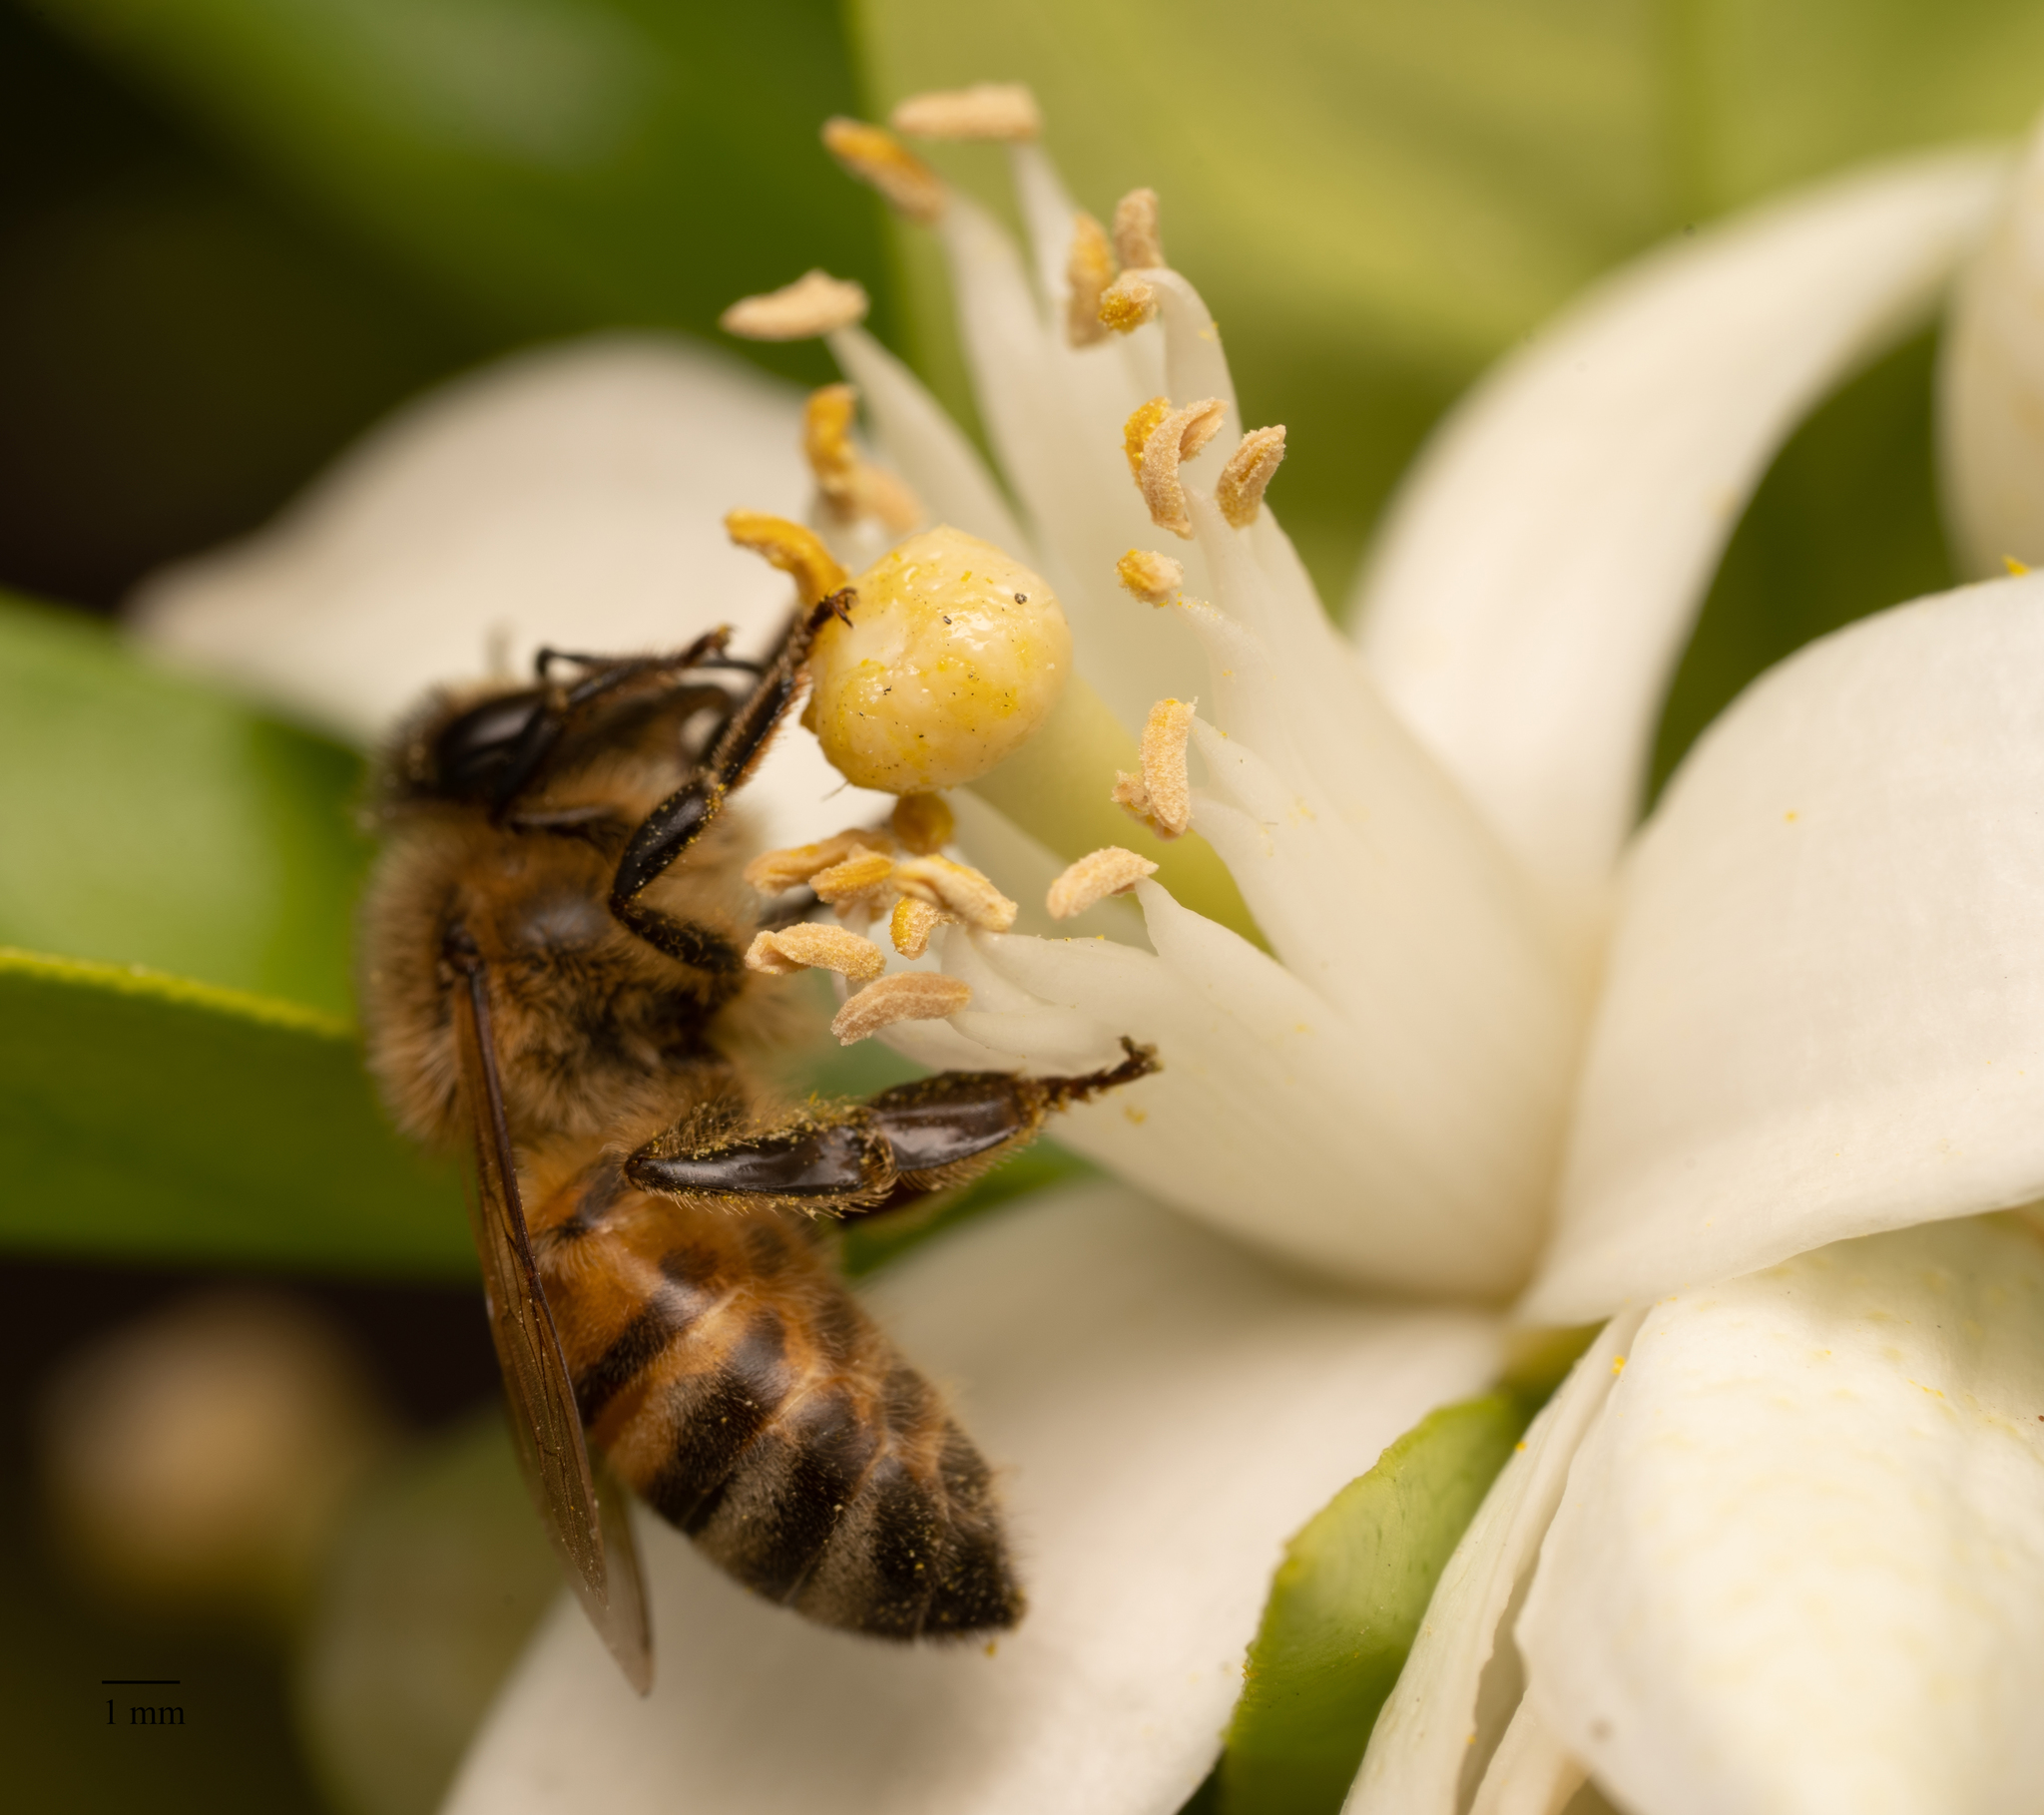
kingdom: Animalia
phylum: Arthropoda
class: Insecta
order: Hymenoptera
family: Apidae
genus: Apis
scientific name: Apis mellifera
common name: Honey bee
